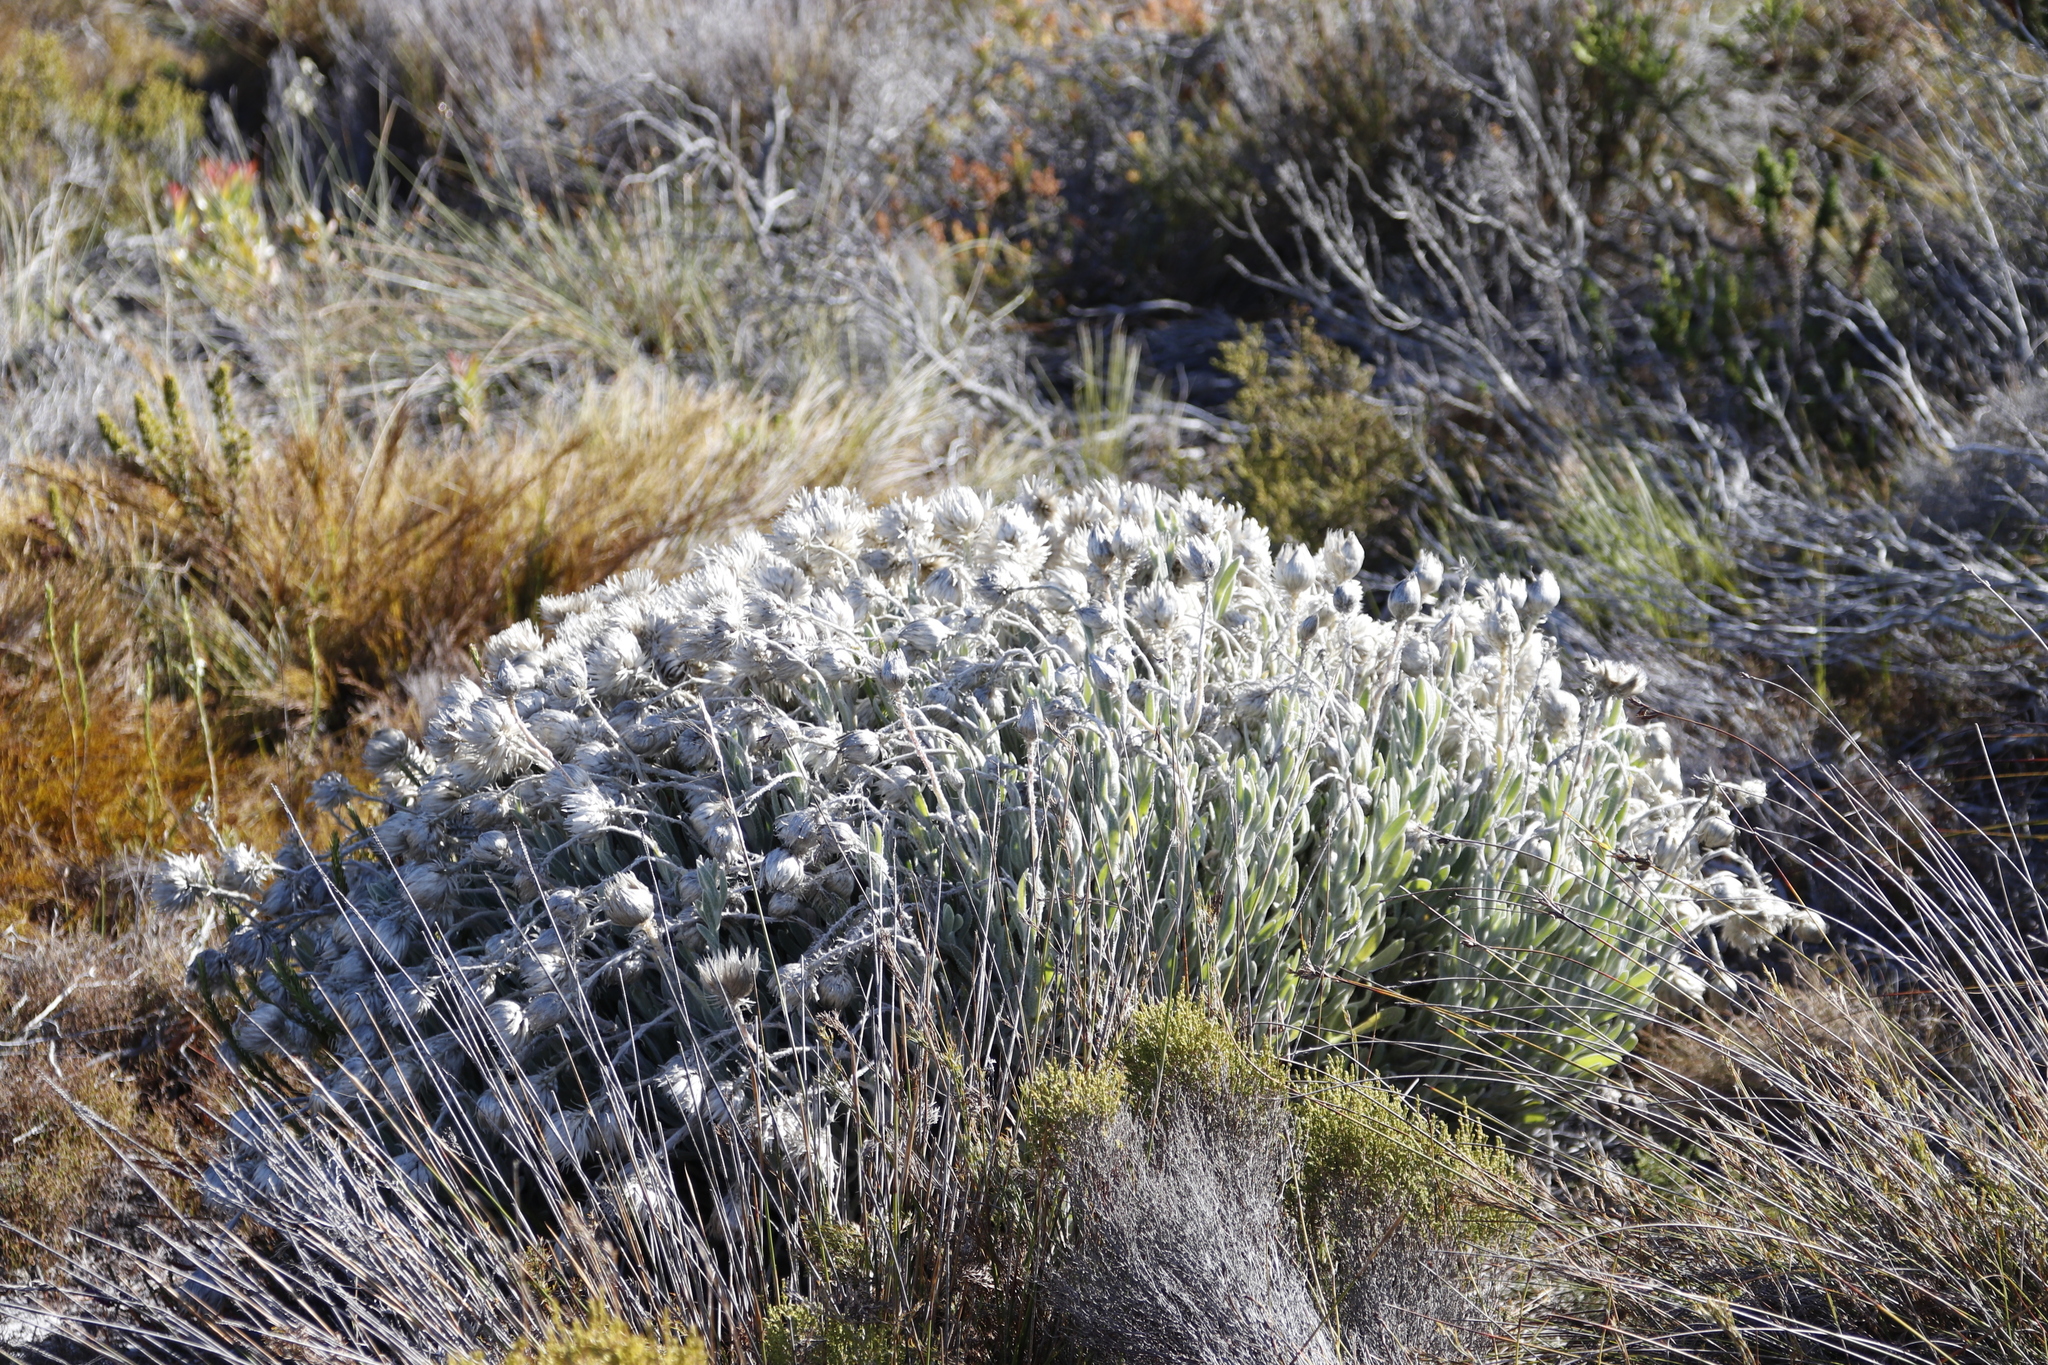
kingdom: Plantae
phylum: Tracheophyta
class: Magnoliopsida
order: Asterales
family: Asteraceae
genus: Syncarpha
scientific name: Syncarpha vestita
